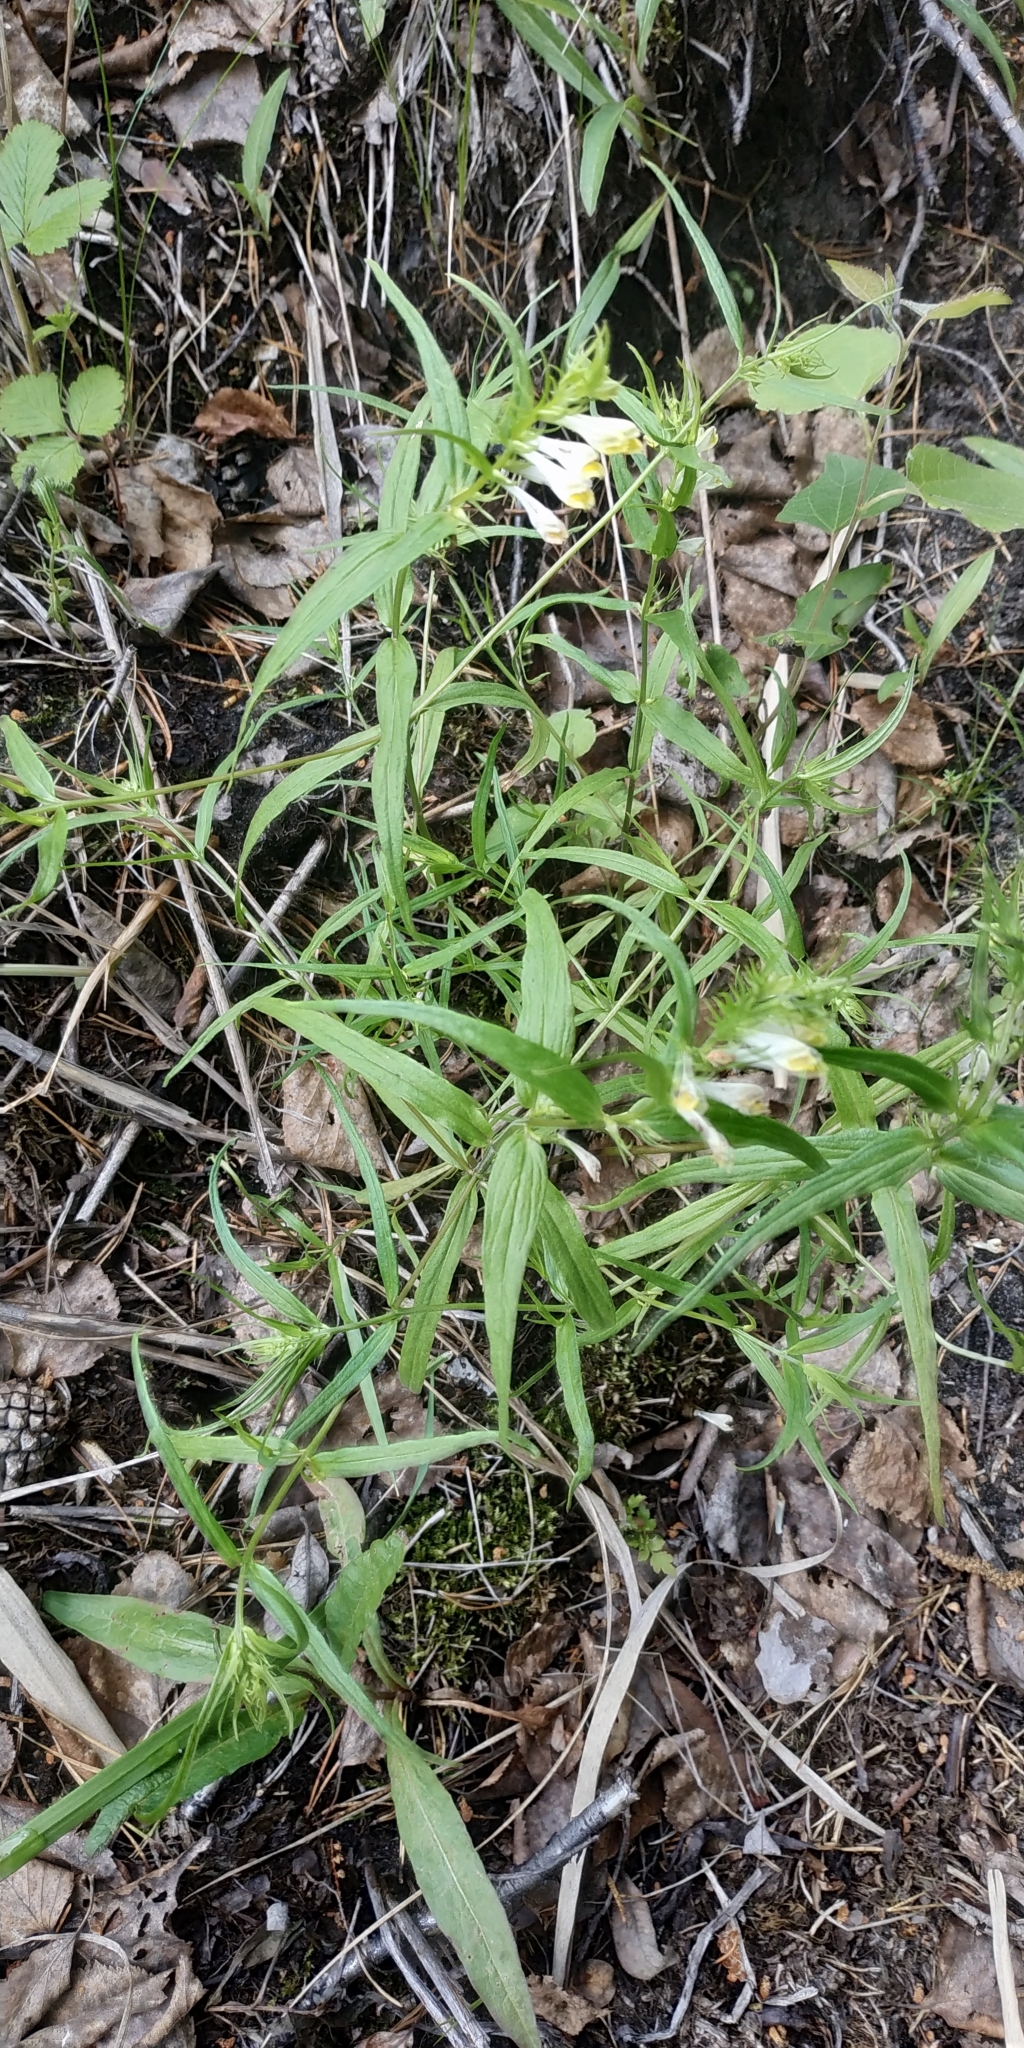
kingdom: Plantae
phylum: Tracheophyta
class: Magnoliopsida
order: Lamiales
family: Orobanchaceae
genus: Melampyrum
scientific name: Melampyrum pratense
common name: Common cow-wheat
